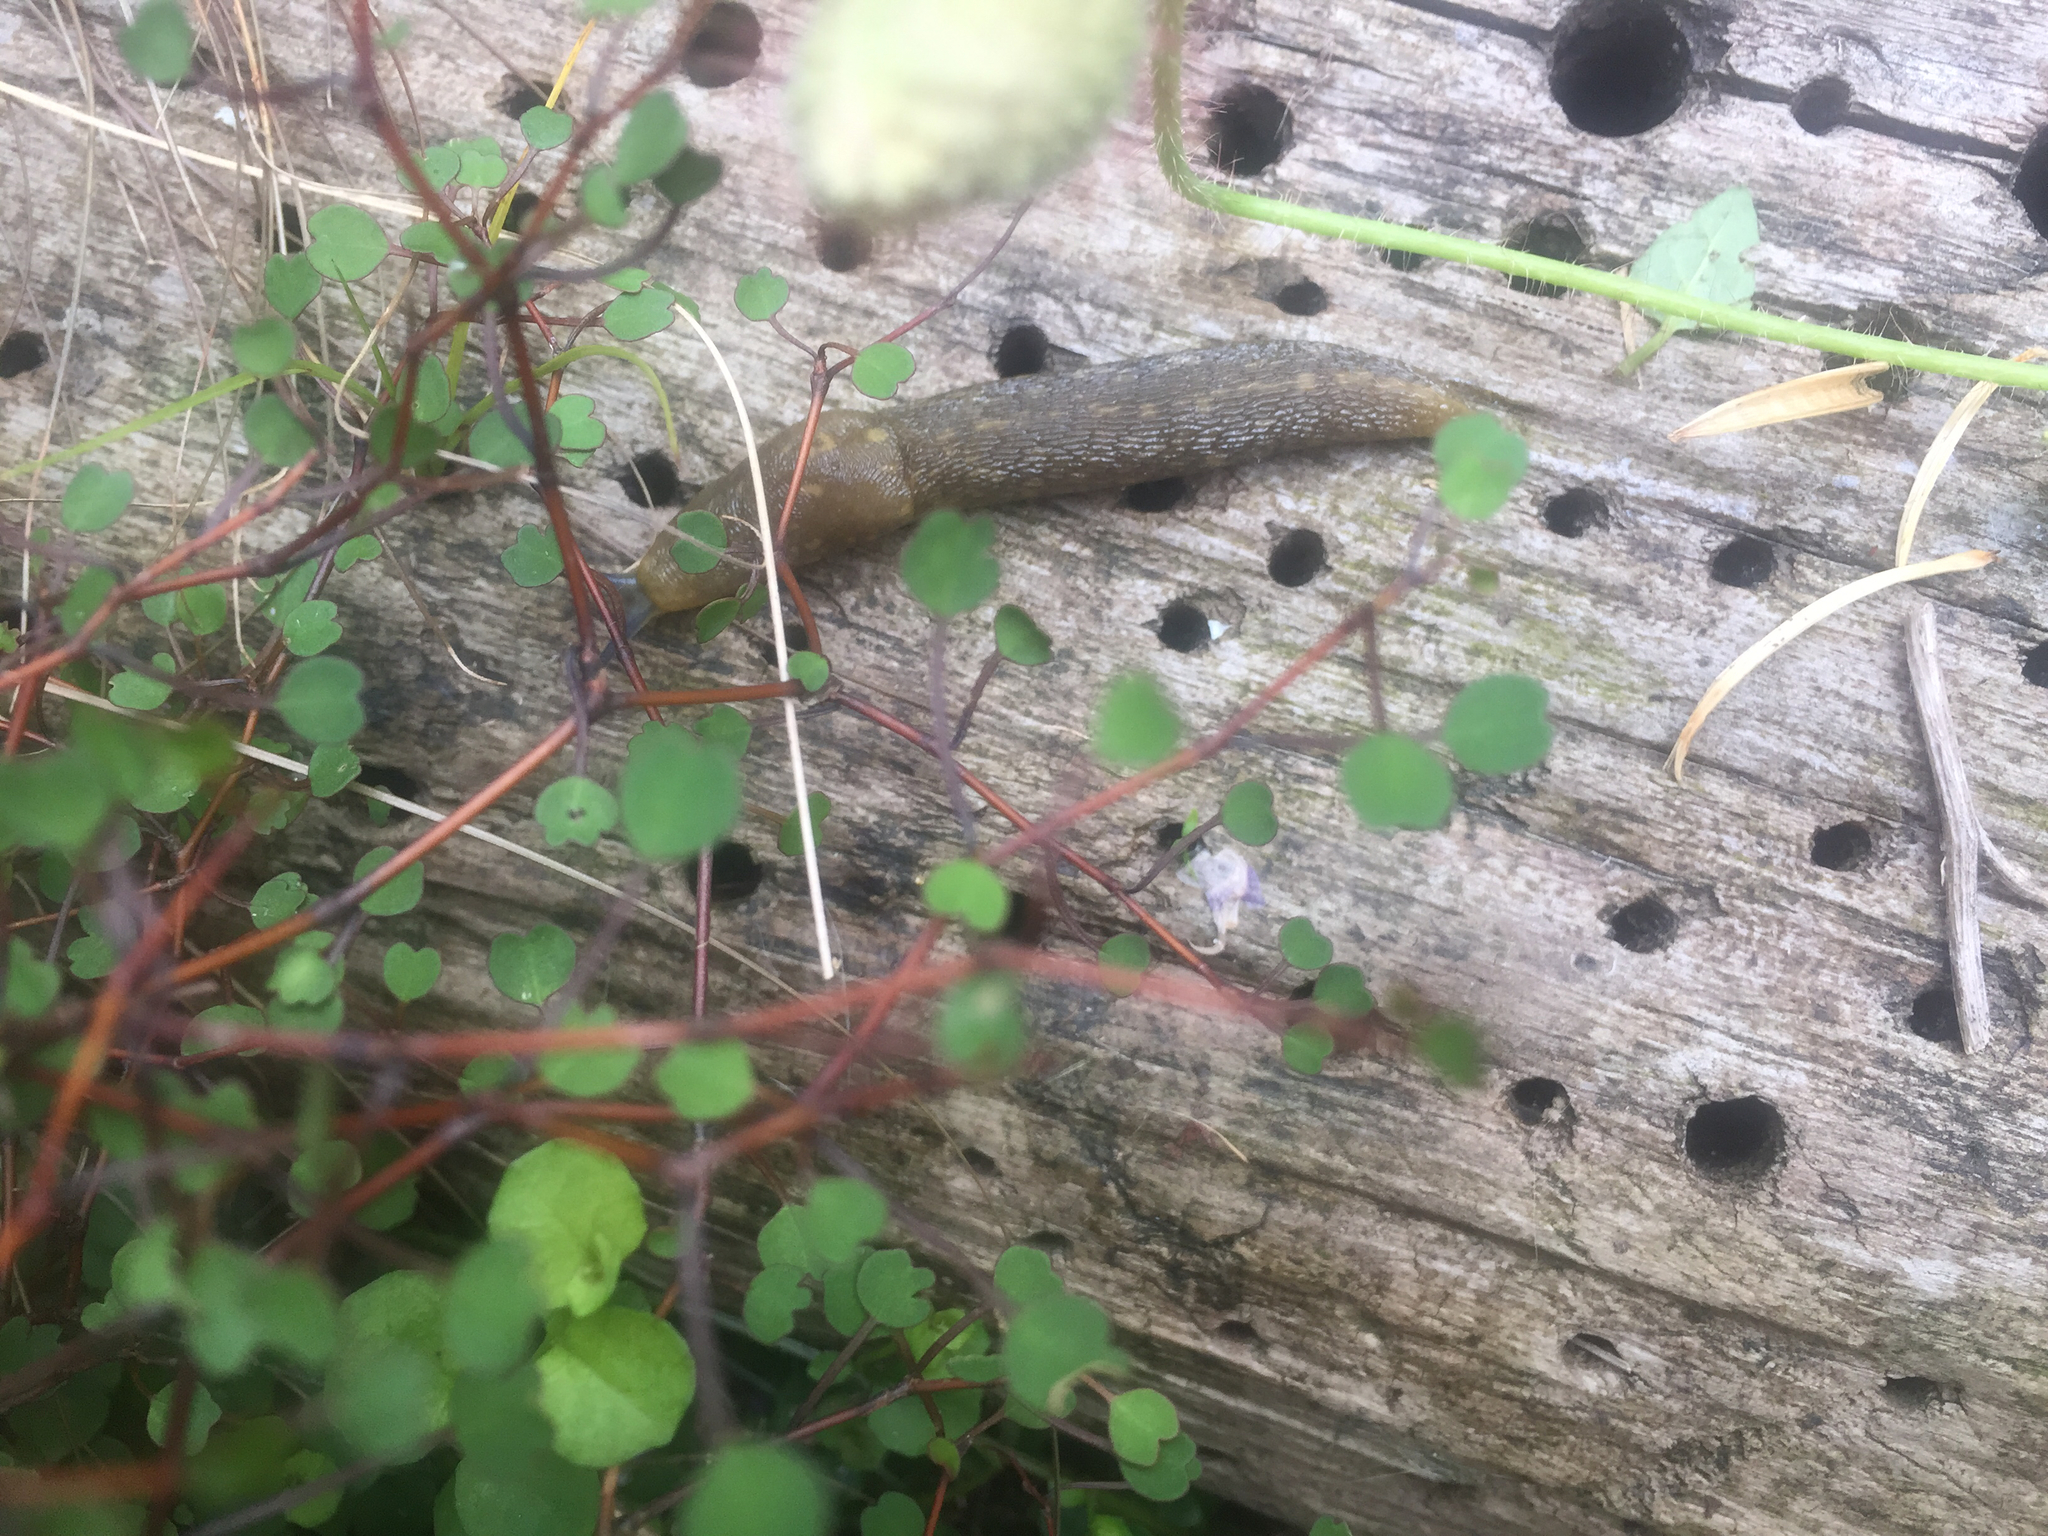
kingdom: Animalia
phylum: Mollusca
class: Gastropoda
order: Stylommatophora
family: Limacidae
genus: Limacus
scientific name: Limacus flavus
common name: Yellow gardenslug
